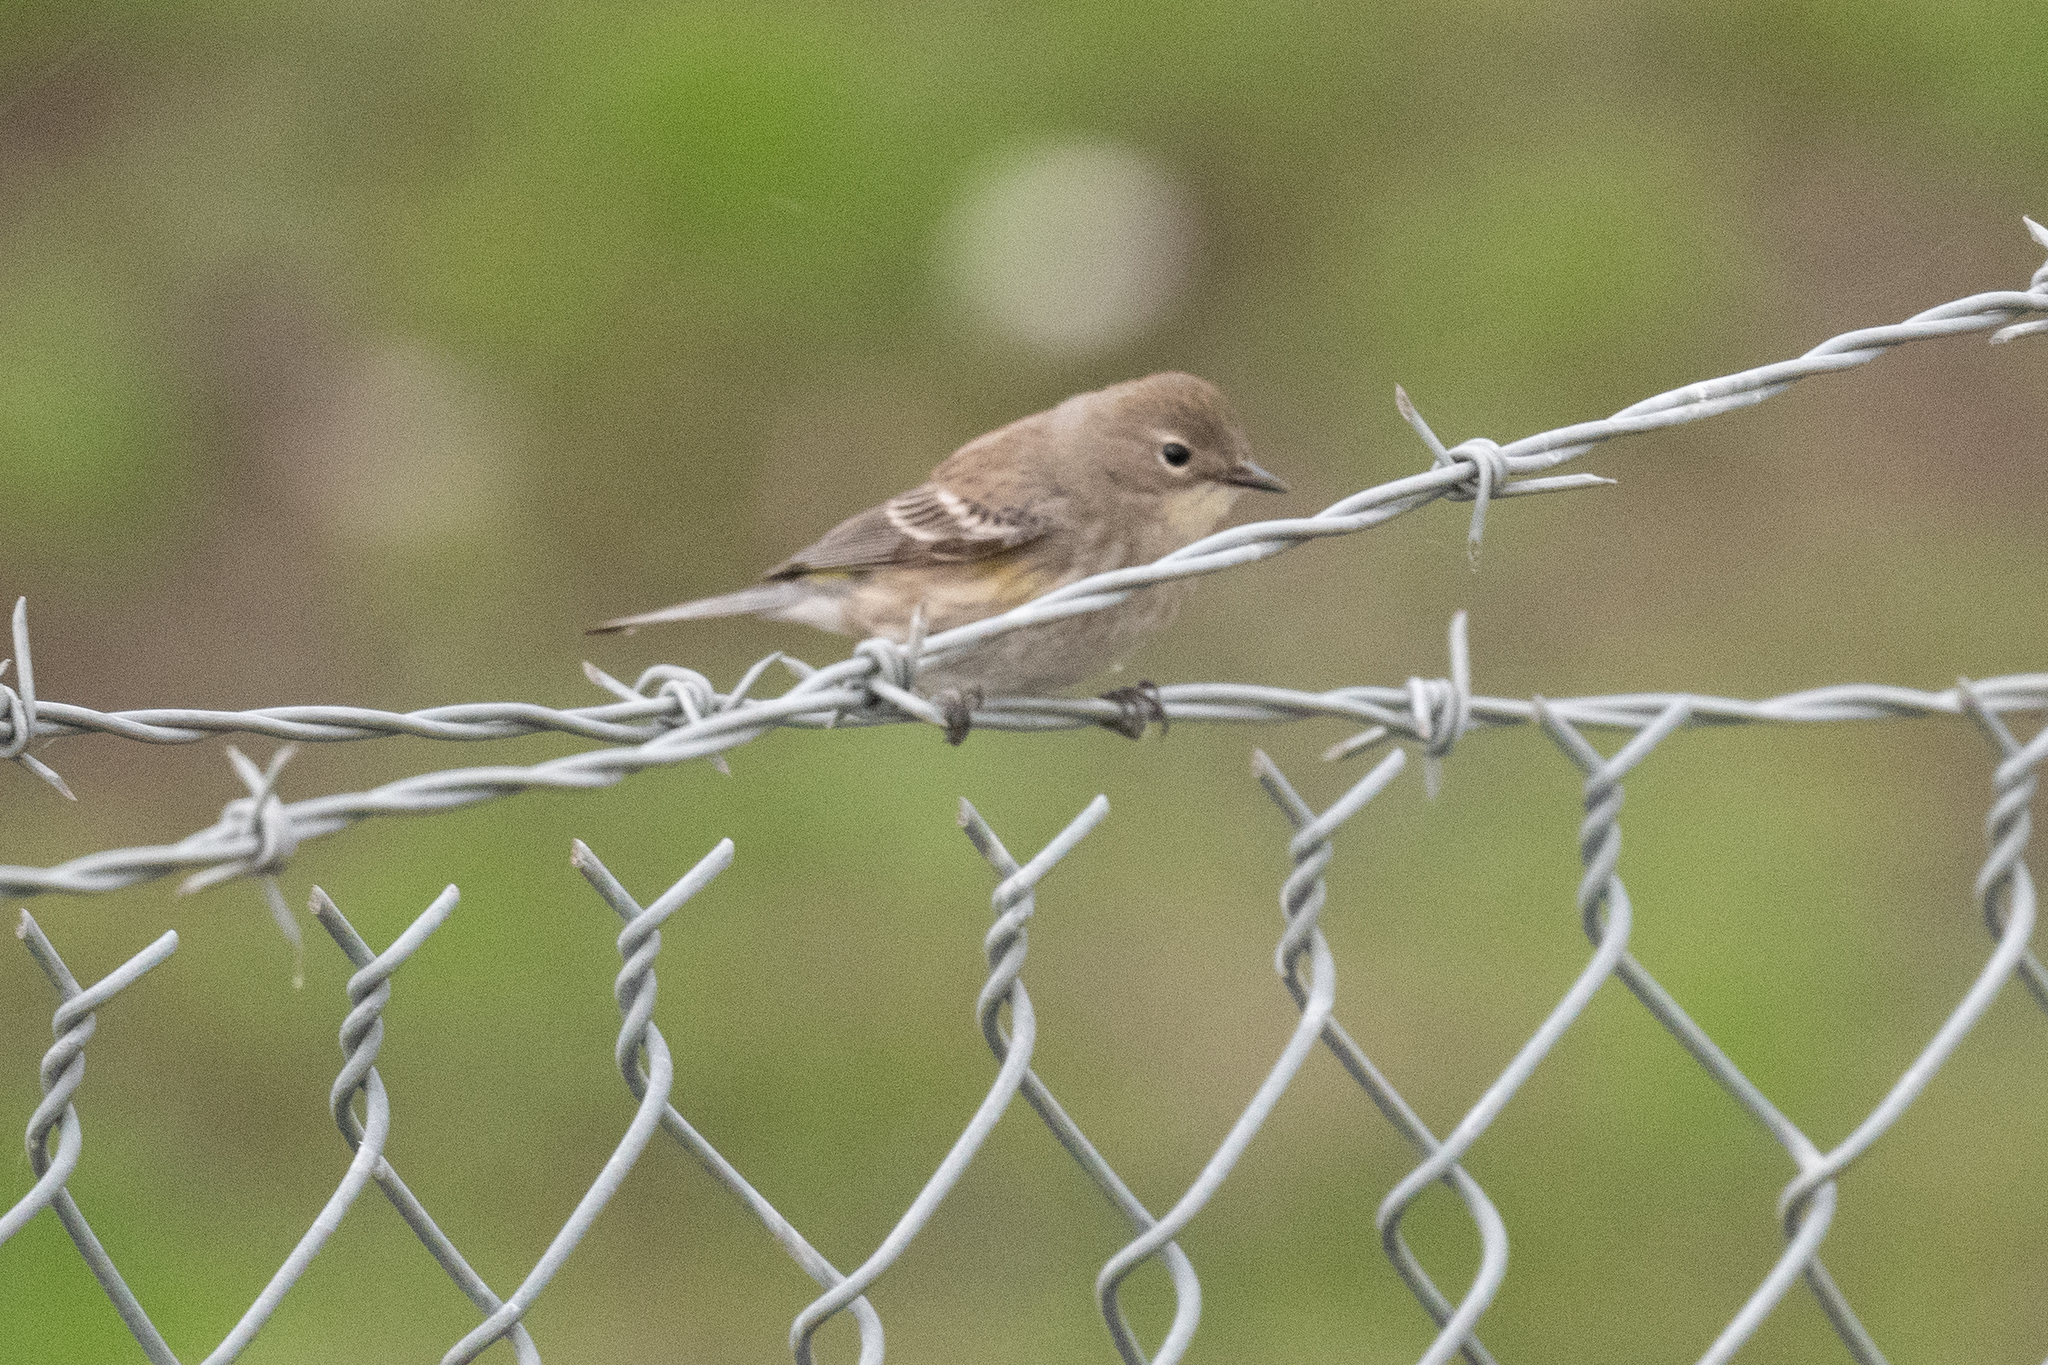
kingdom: Animalia
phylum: Chordata
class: Aves
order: Passeriformes
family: Parulidae
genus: Setophaga
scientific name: Setophaga coronata
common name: Myrtle warbler
